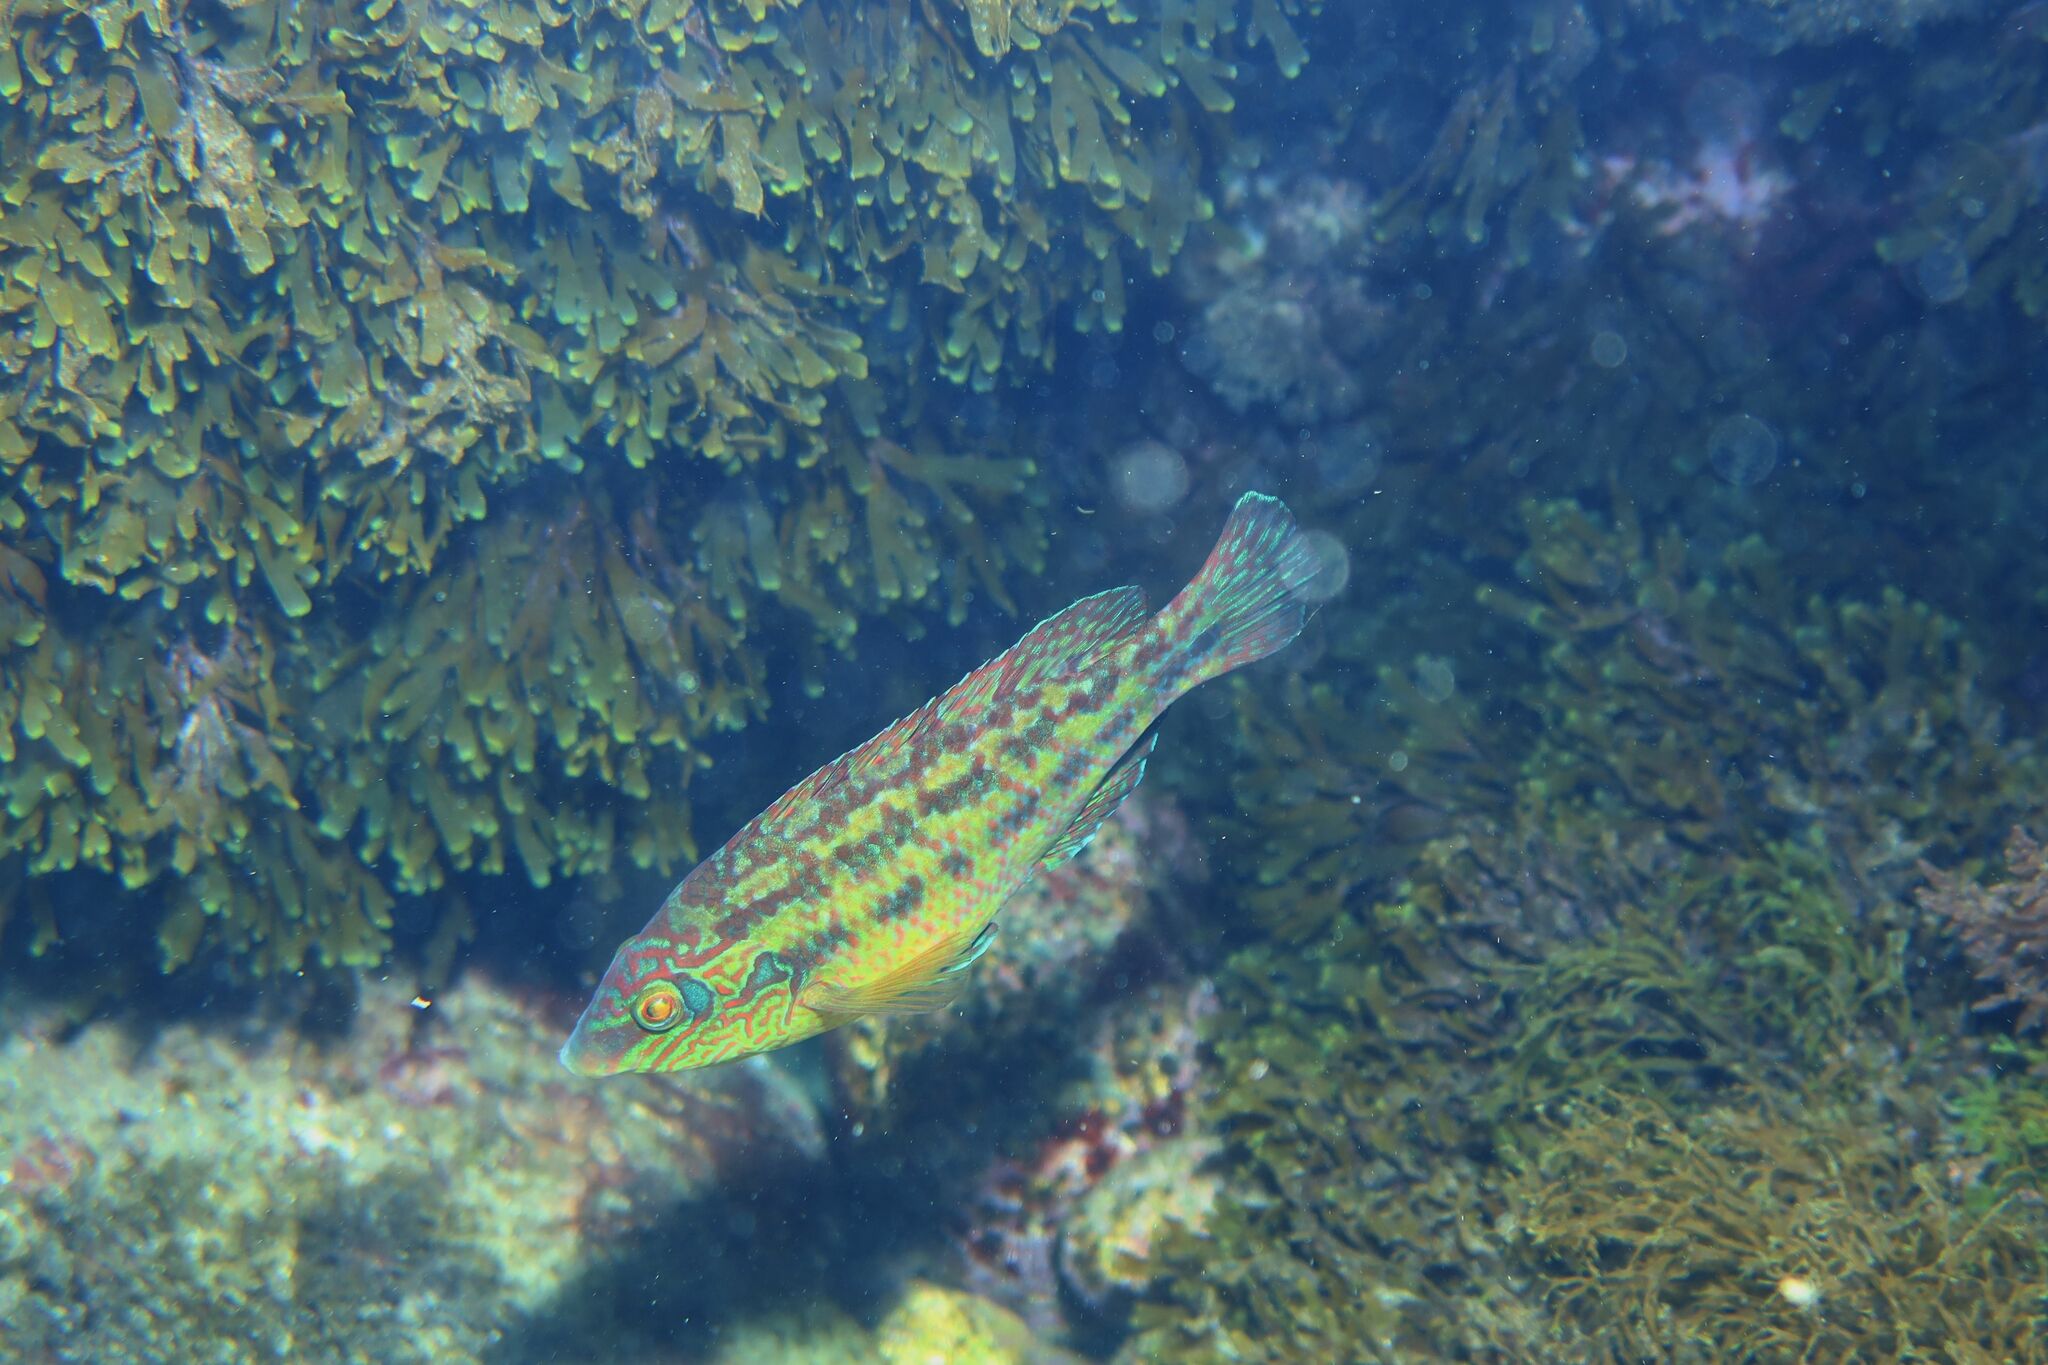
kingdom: Animalia
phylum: Chordata
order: Perciformes
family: Labridae
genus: Symphodus
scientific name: Symphodus melops
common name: Corkwing
